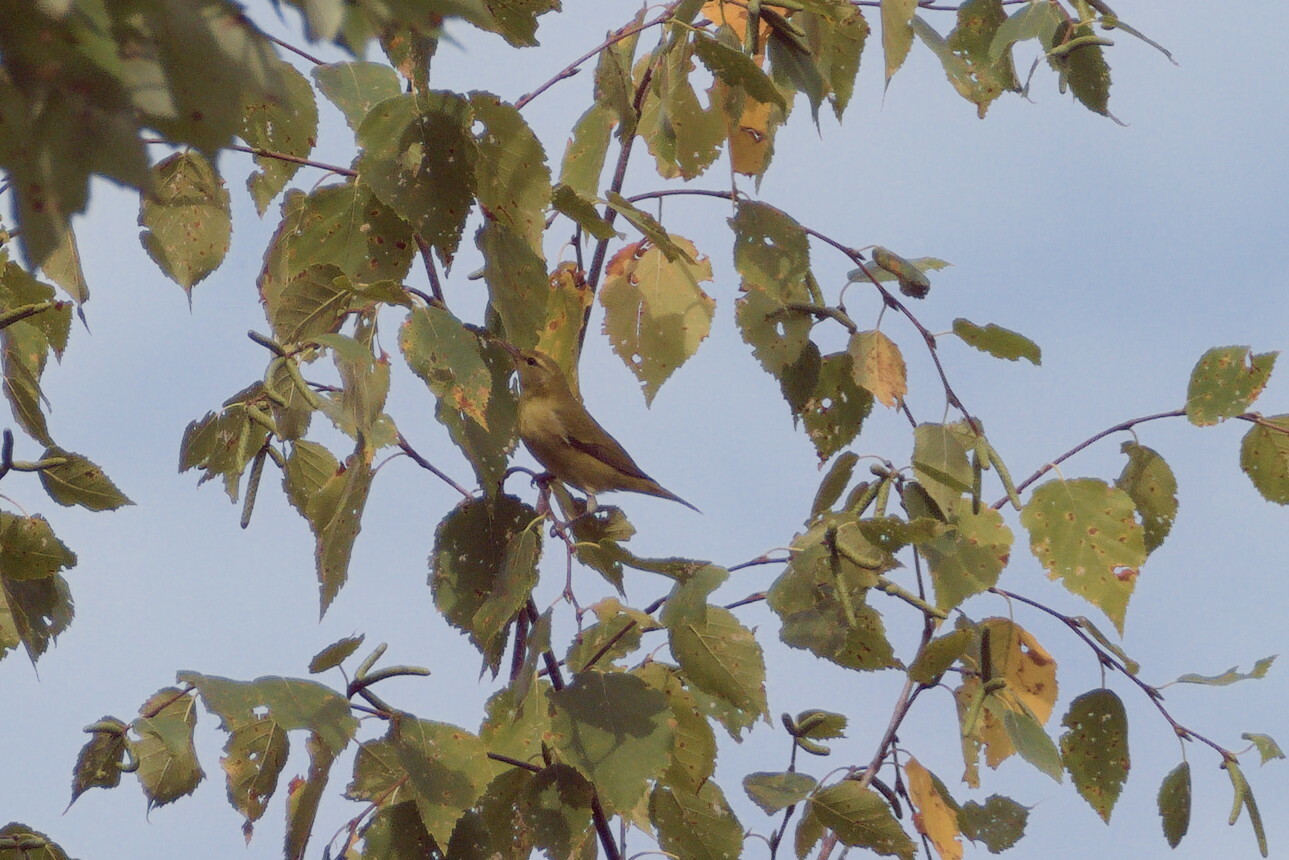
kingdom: Animalia
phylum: Chordata
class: Aves
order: Passeriformes
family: Parulidae
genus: Leiothlypis
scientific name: Leiothlypis peregrina
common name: Tennessee warbler
